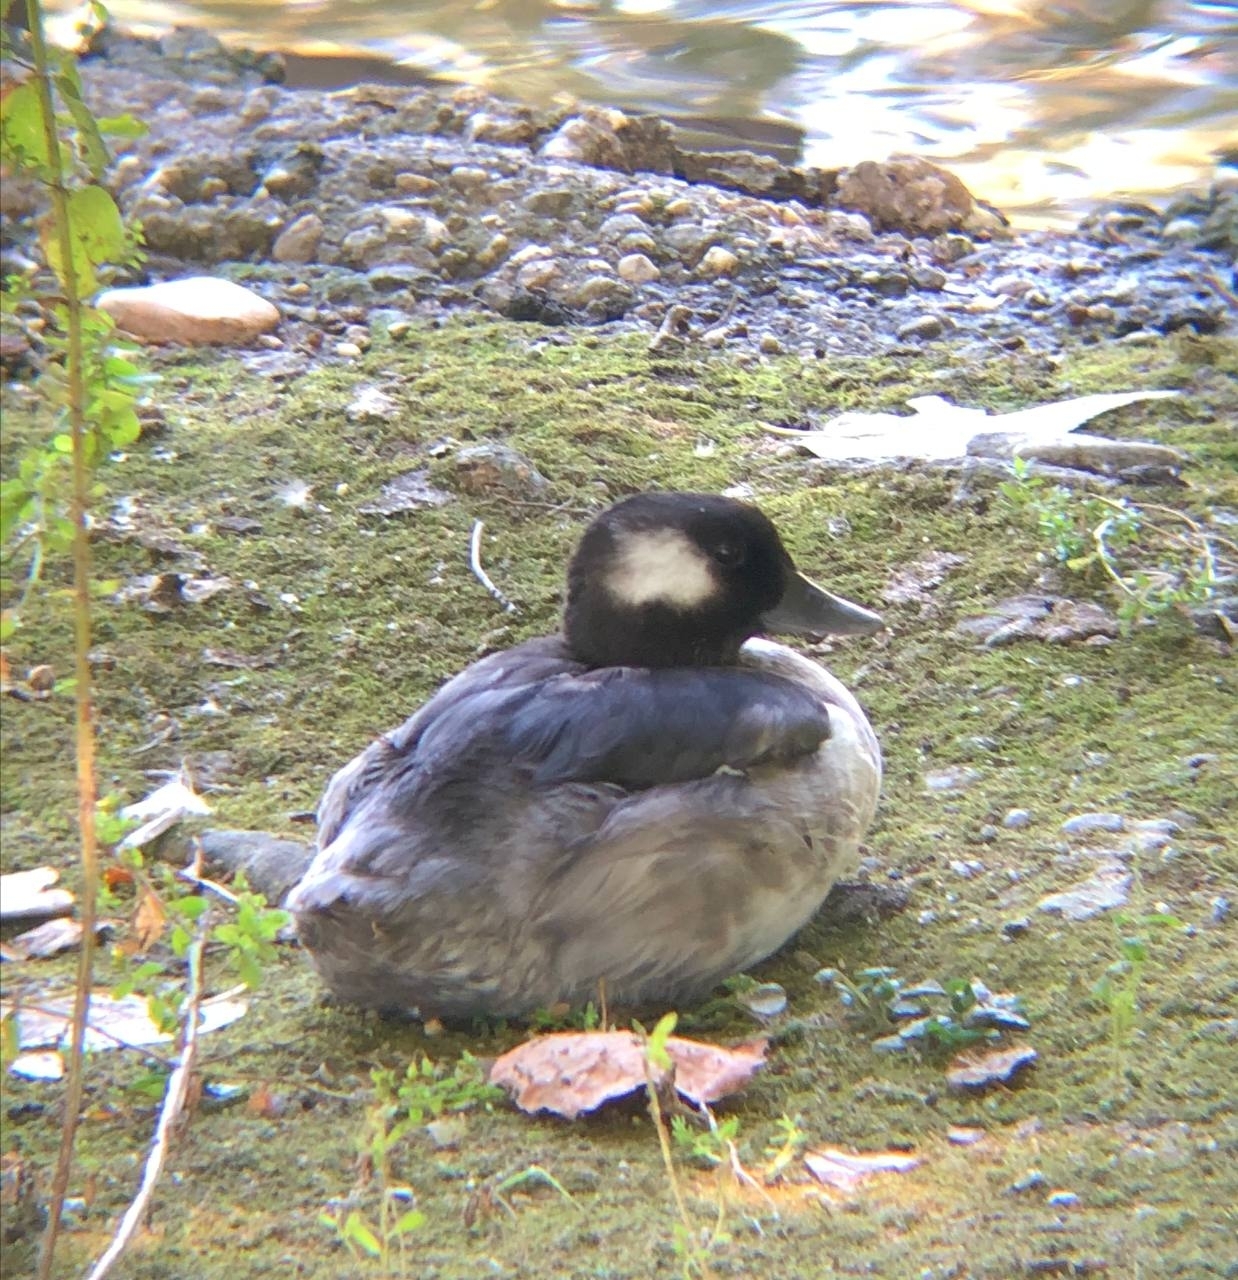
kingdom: Animalia
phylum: Chordata
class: Aves
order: Anseriformes
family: Anatidae
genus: Bucephala
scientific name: Bucephala albeola
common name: Bufflehead
